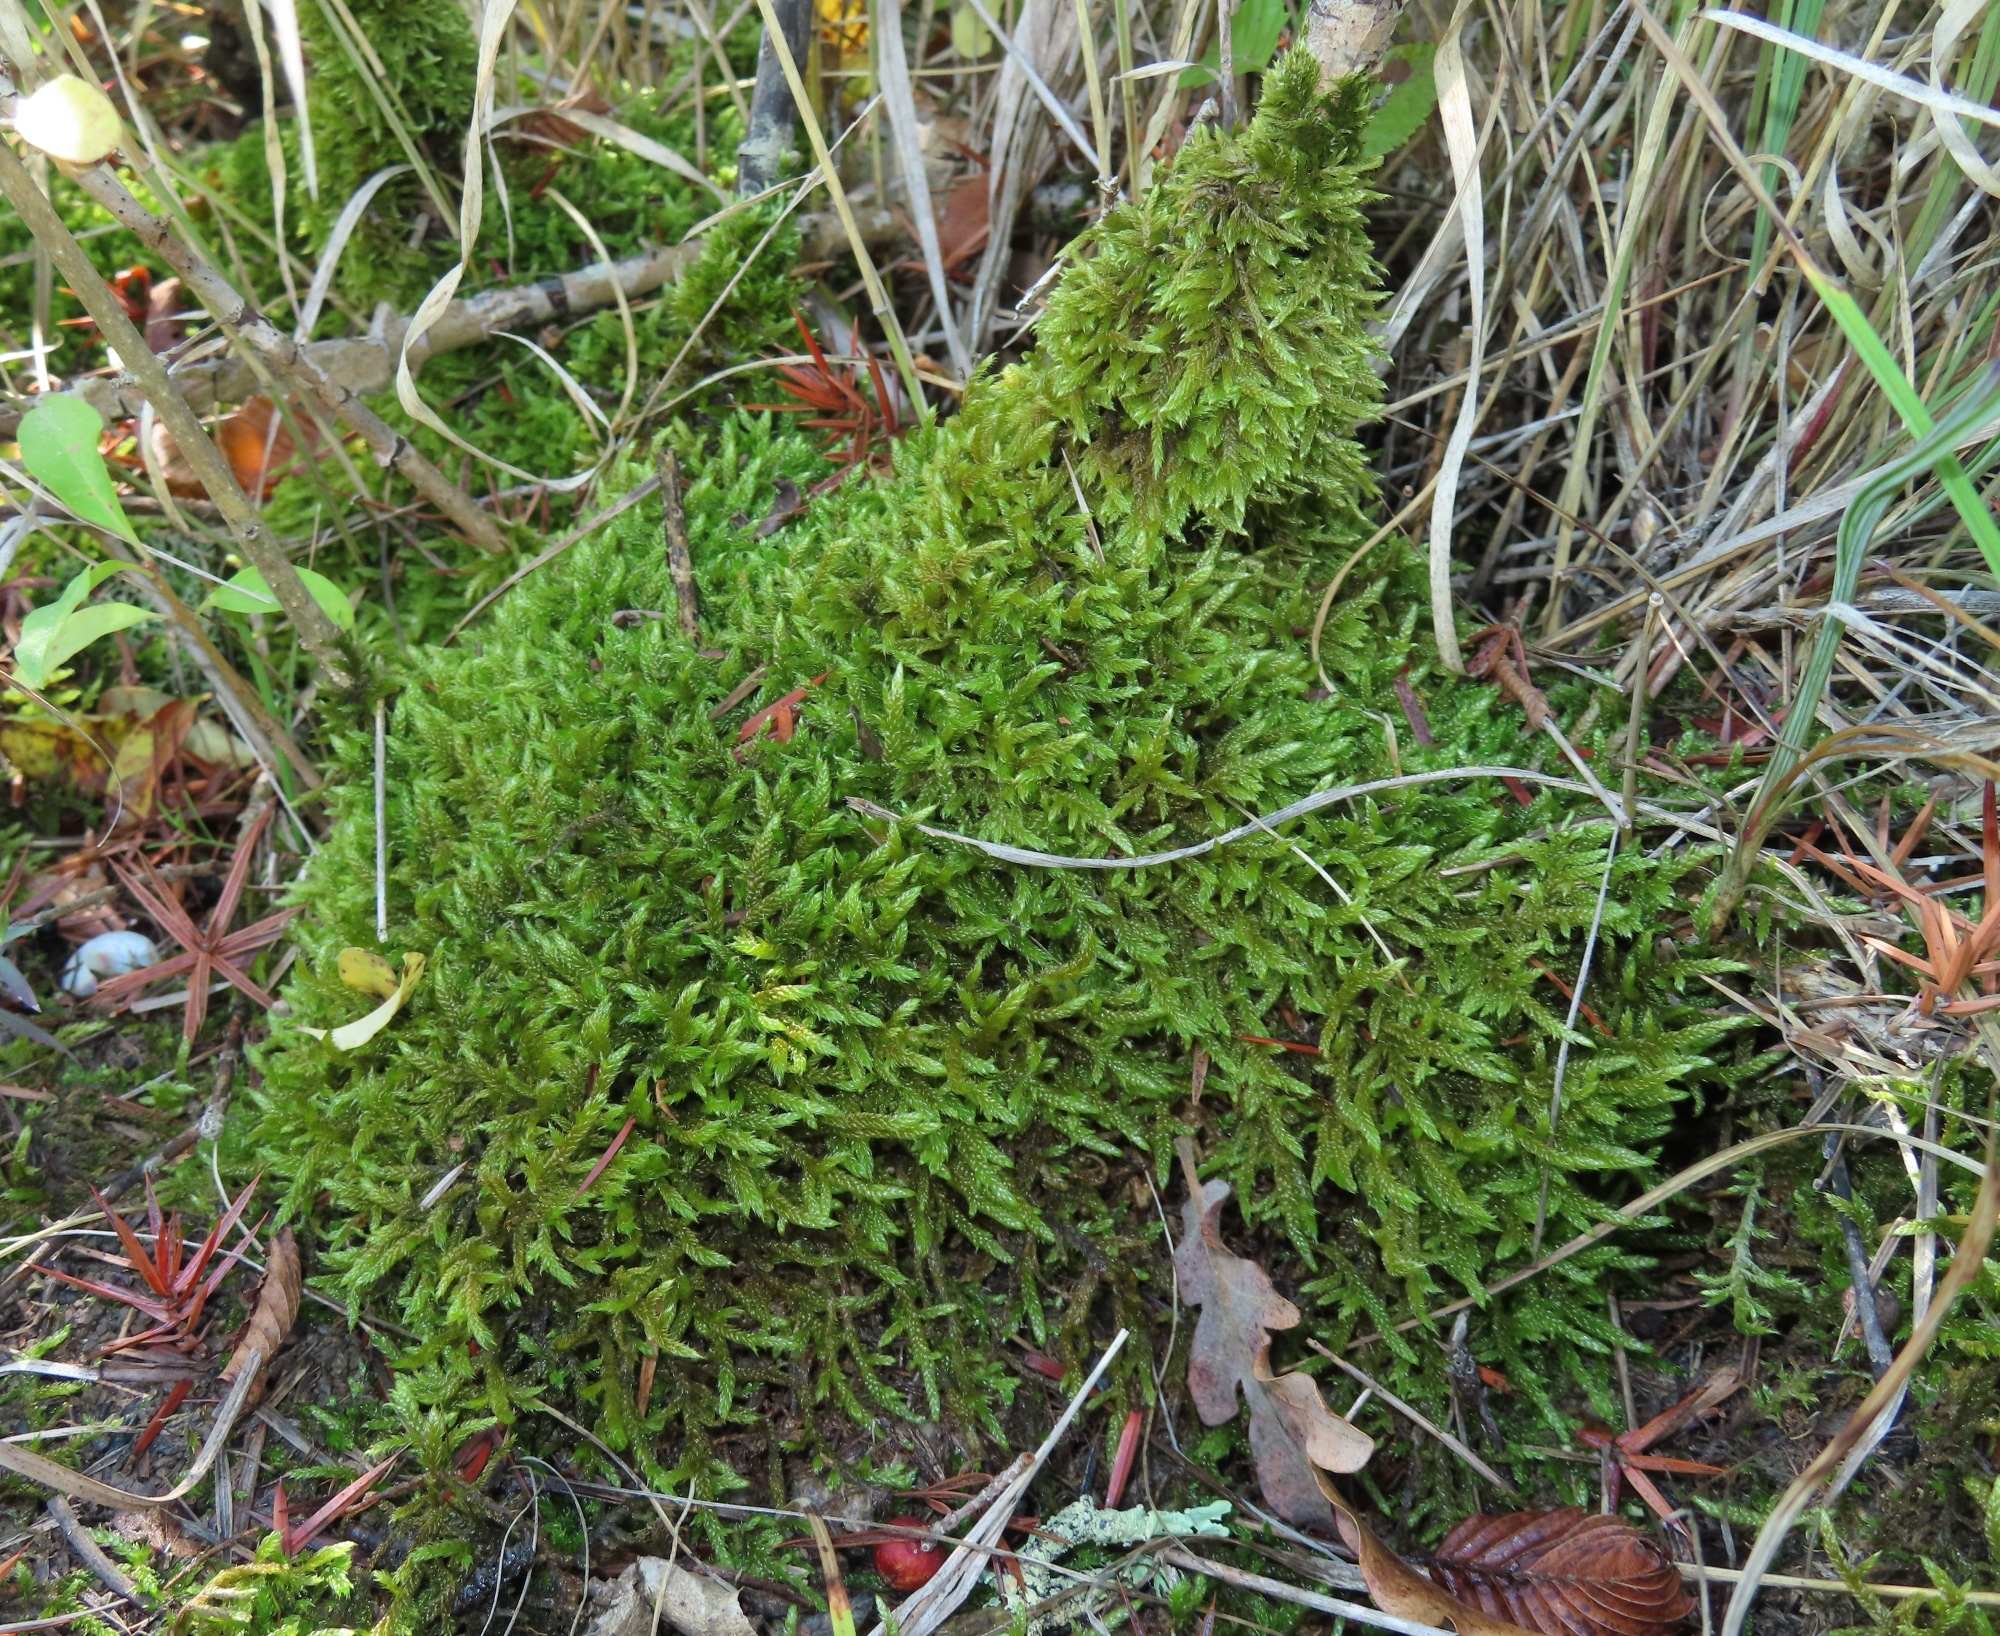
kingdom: Plantae
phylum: Bryophyta
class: Bryopsida
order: Hypnales
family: Hypnaceae
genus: Hypnum
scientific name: Hypnum cupressiforme
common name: Cypress-leaved plait-moss
